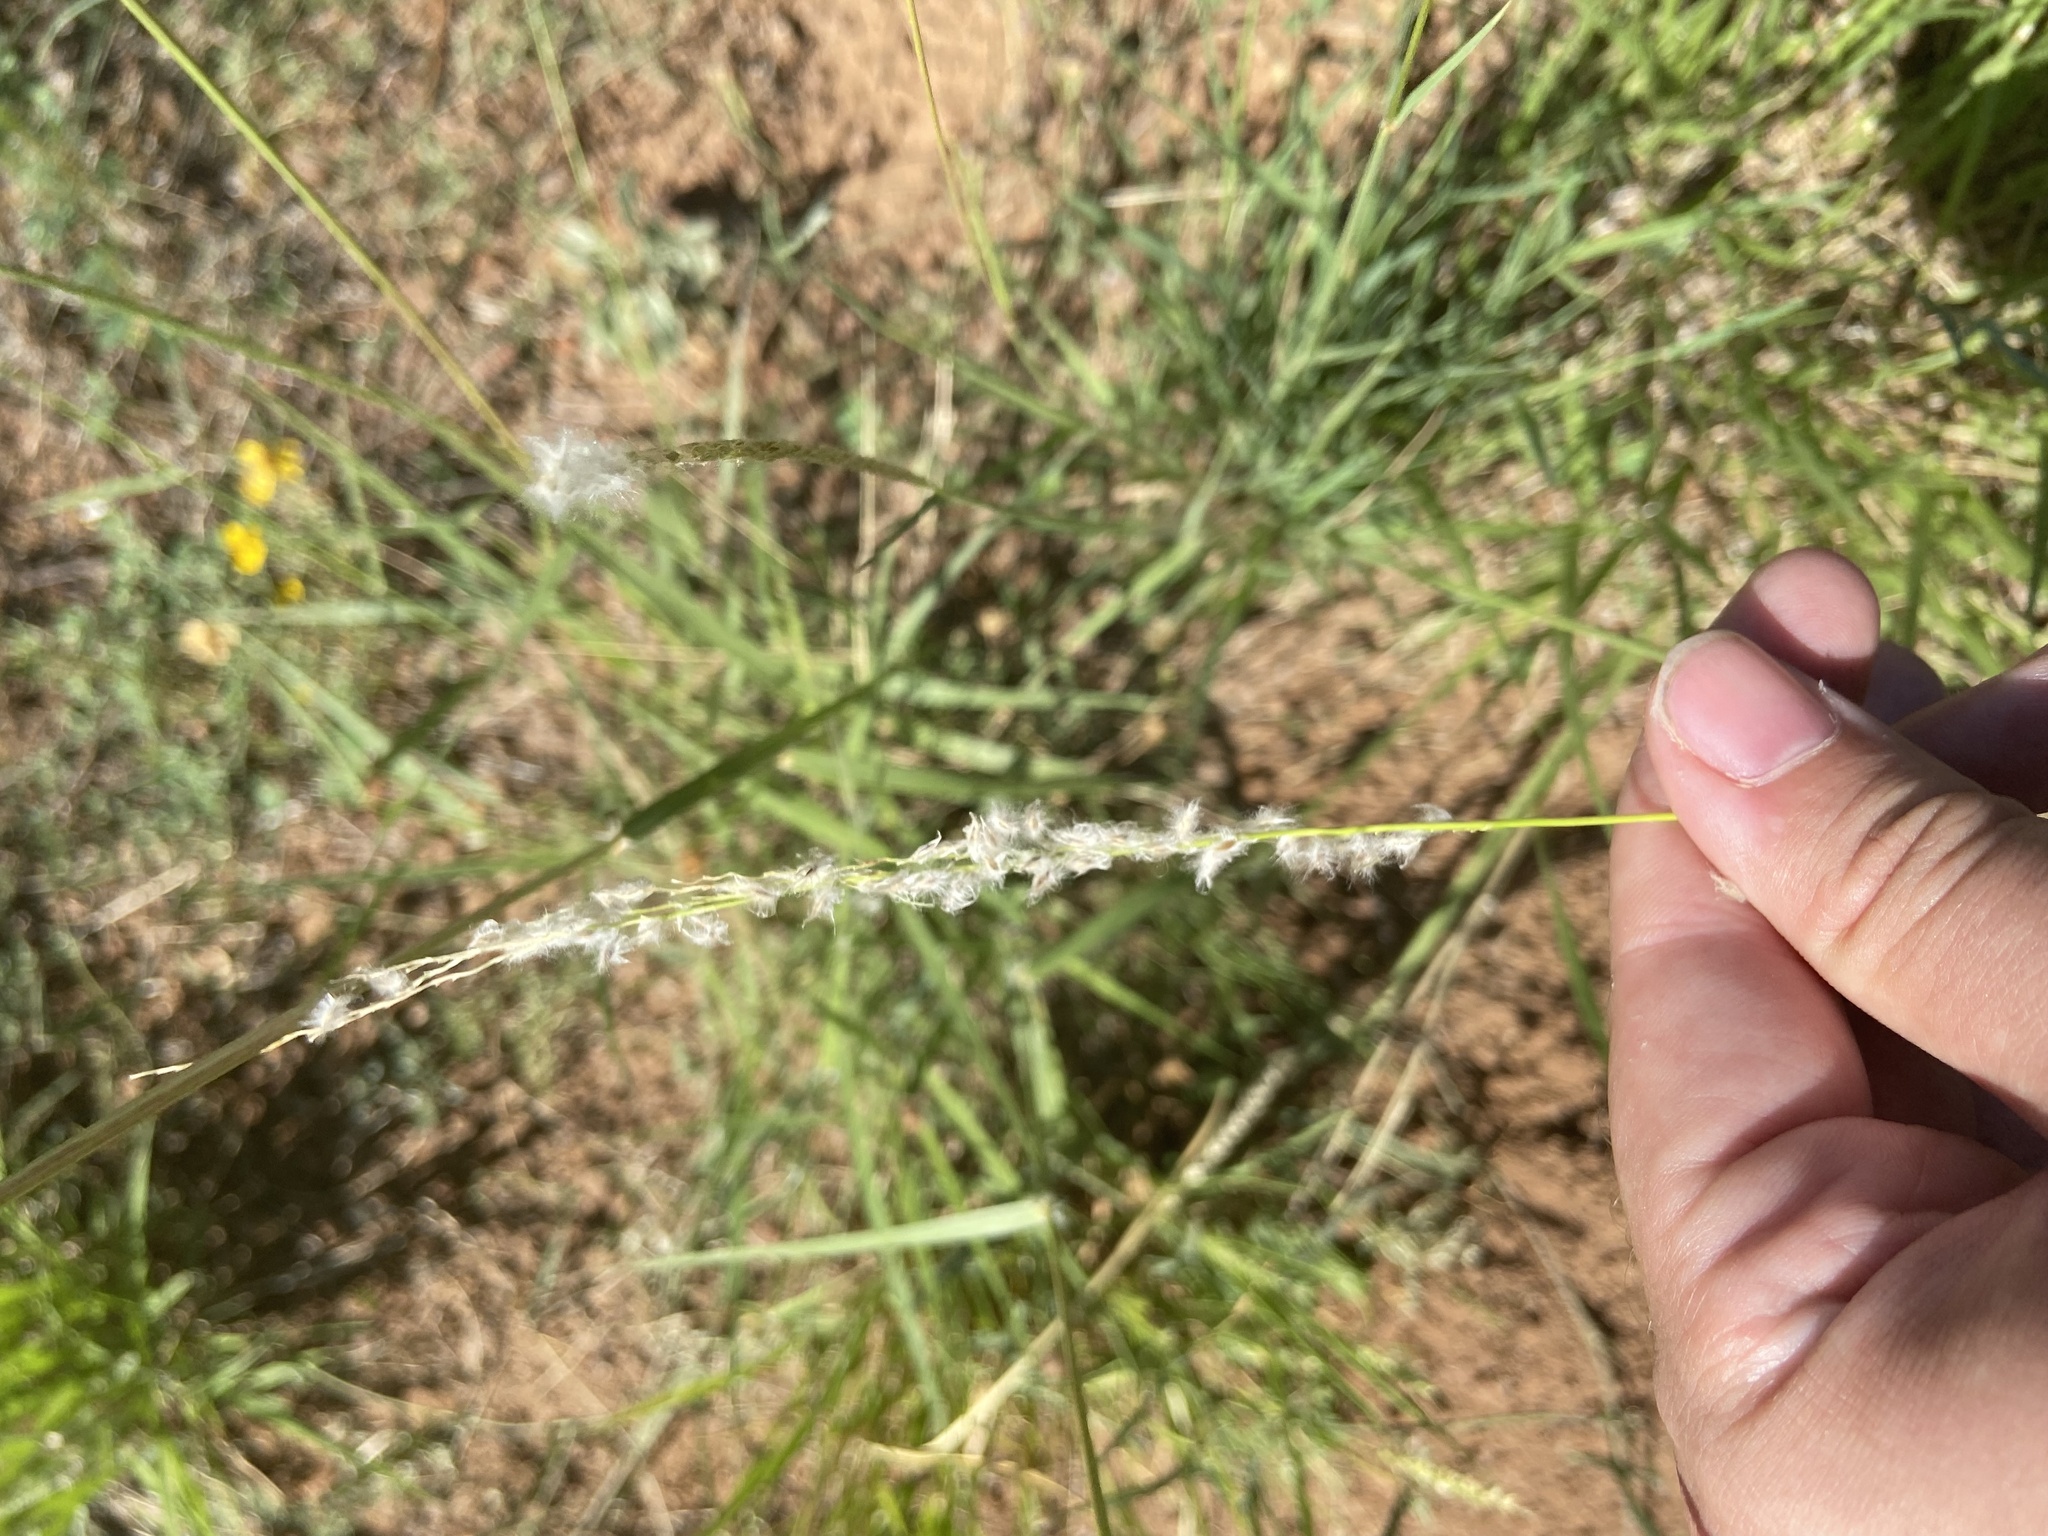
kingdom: Plantae
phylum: Tracheophyta
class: Liliopsida
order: Poales
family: Poaceae
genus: Digitaria
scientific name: Digitaria californica
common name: Arizona cottontop
